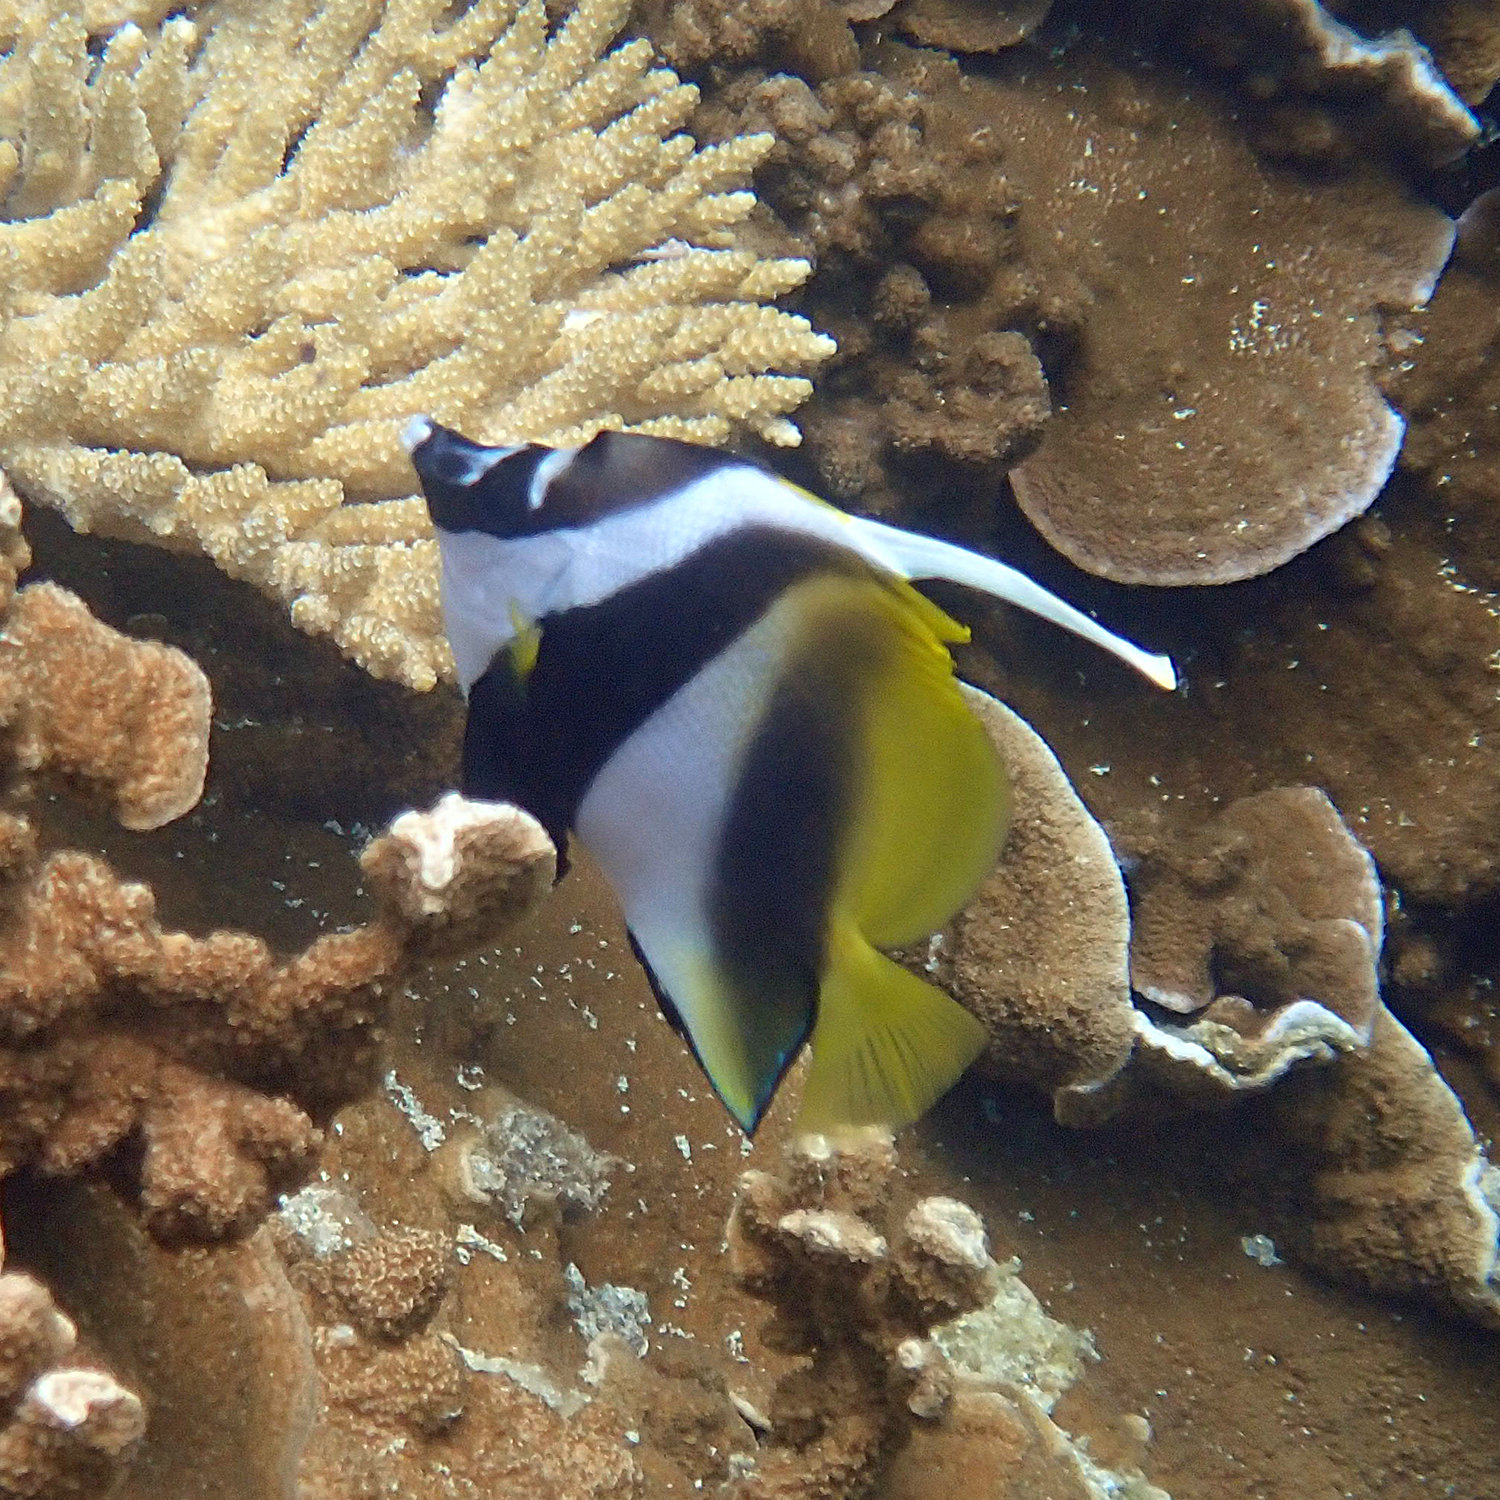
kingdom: Animalia
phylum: Chordata
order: Perciformes
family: Chaetodontidae
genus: Heniochus
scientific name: Heniochus monoceros
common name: Masked bannerfish
